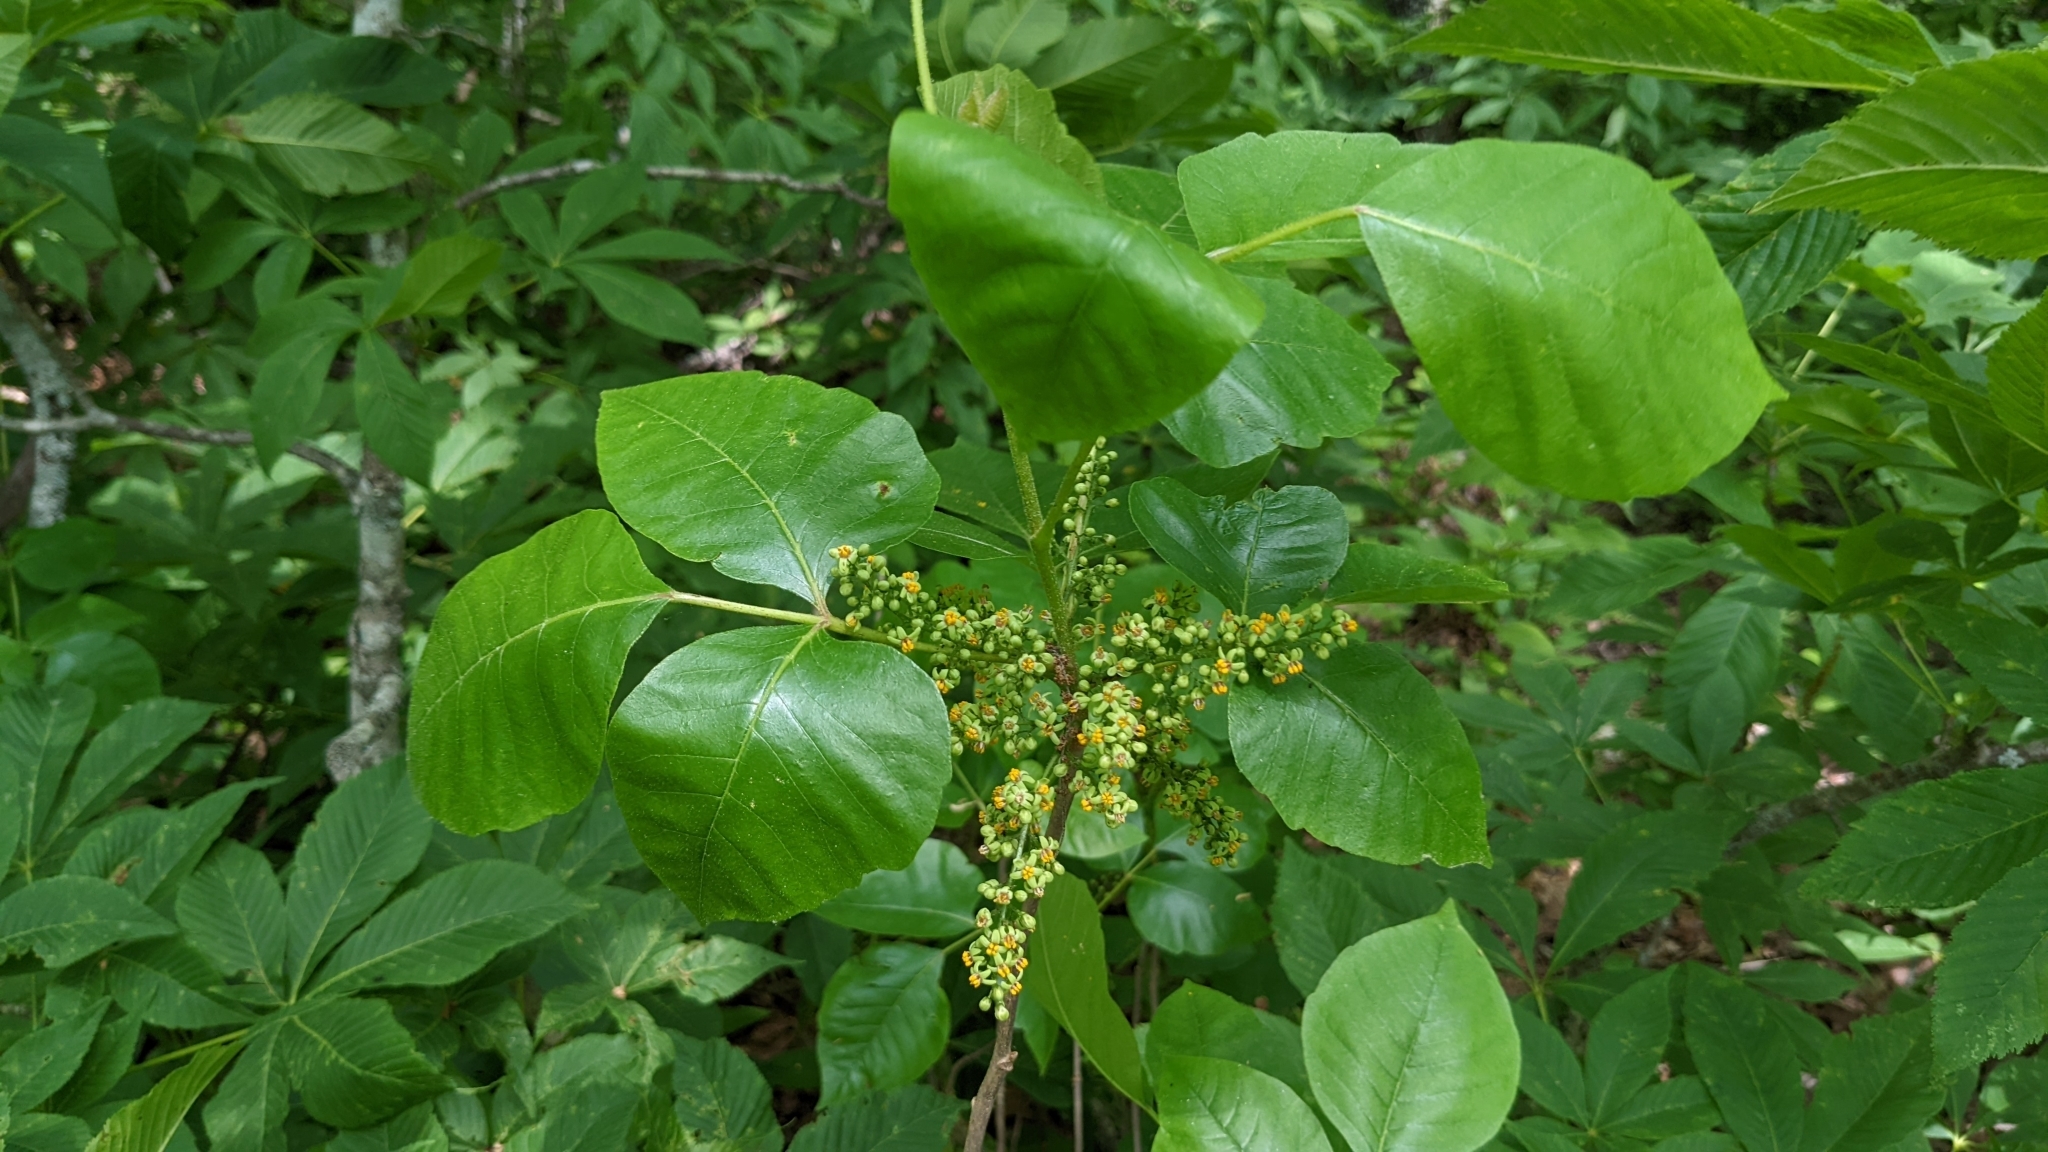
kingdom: Plantae
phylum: Tracheophyta
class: Magnoliopsida
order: Sapindales
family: Anacardiaceae
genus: Toxicodendron
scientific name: Toxicodendron radicans
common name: Poison ivy
